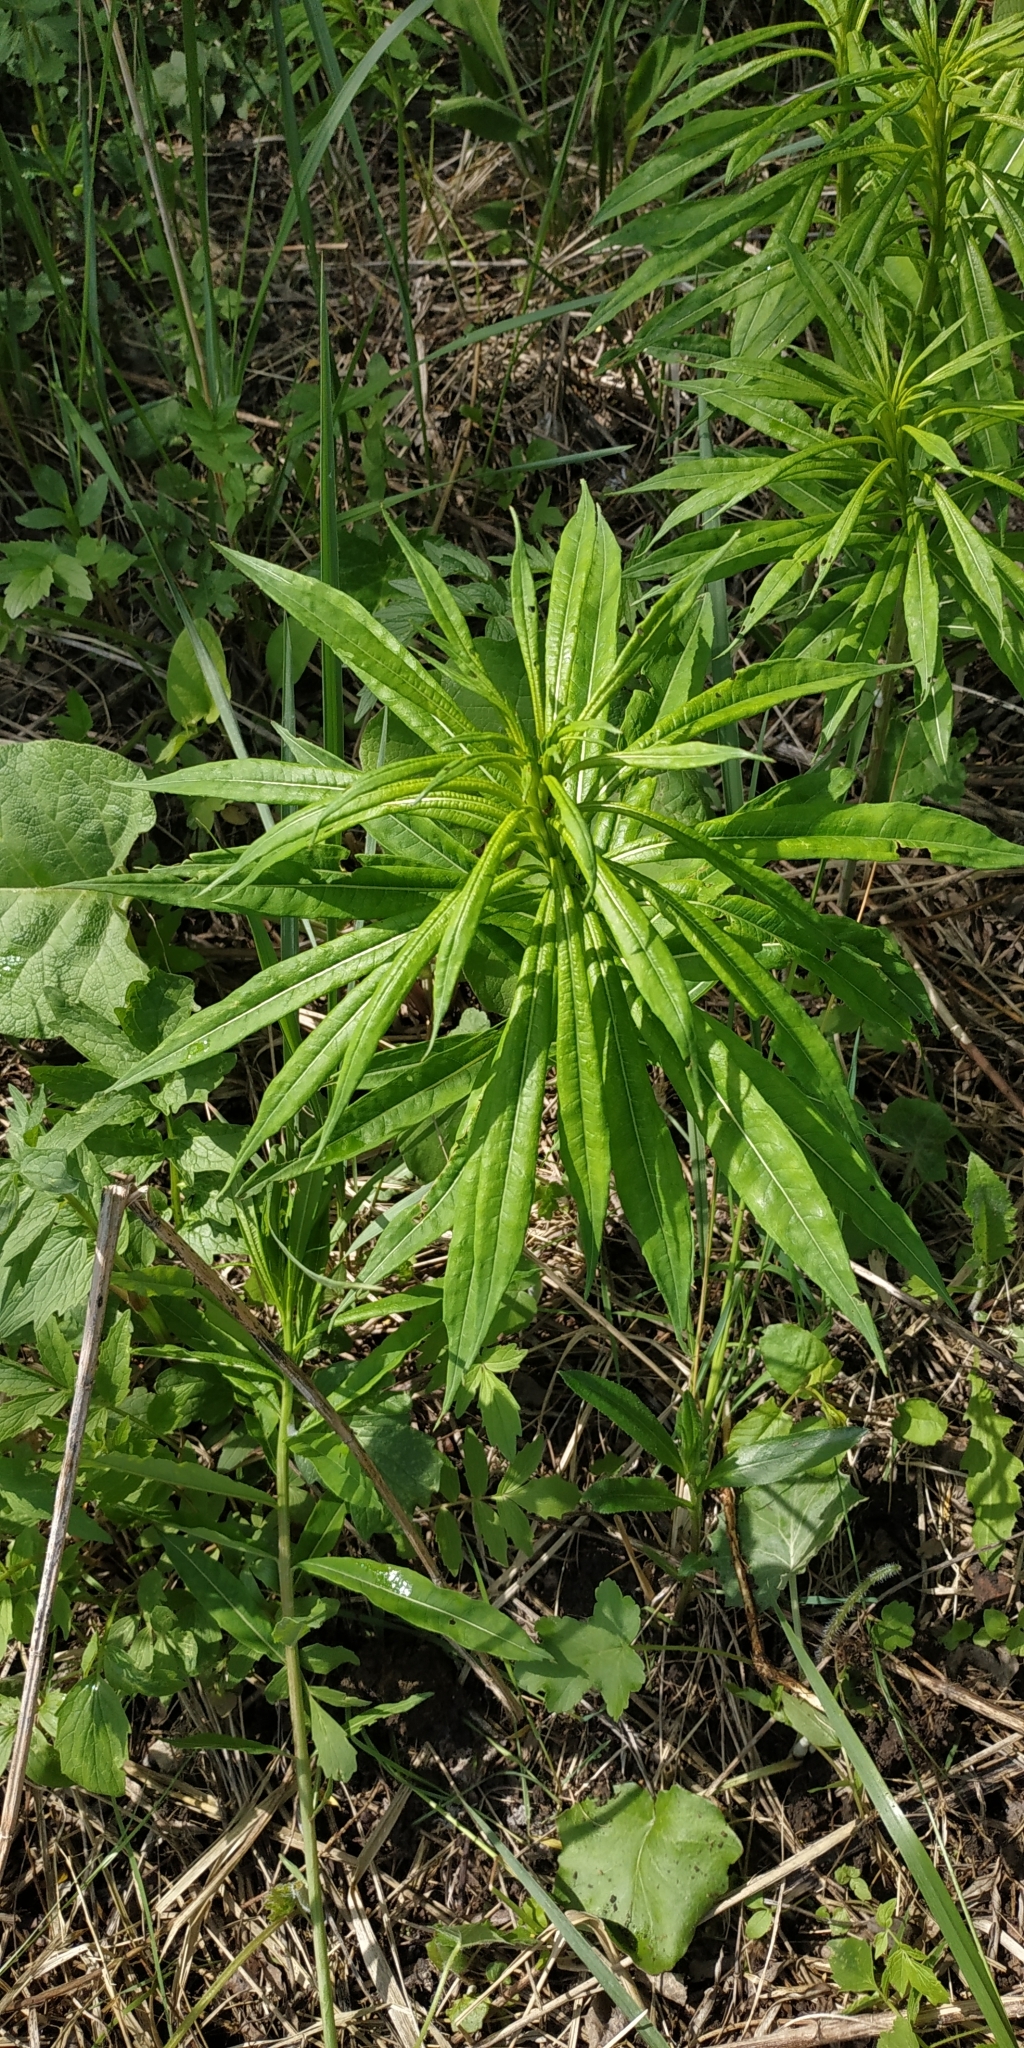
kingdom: Plantae
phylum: Tracheophyta
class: Magnoliopsida
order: Myrtales
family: Onagraceae
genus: Chamaenerion
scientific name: Chamaenerion angustifolium
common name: Fireweed
